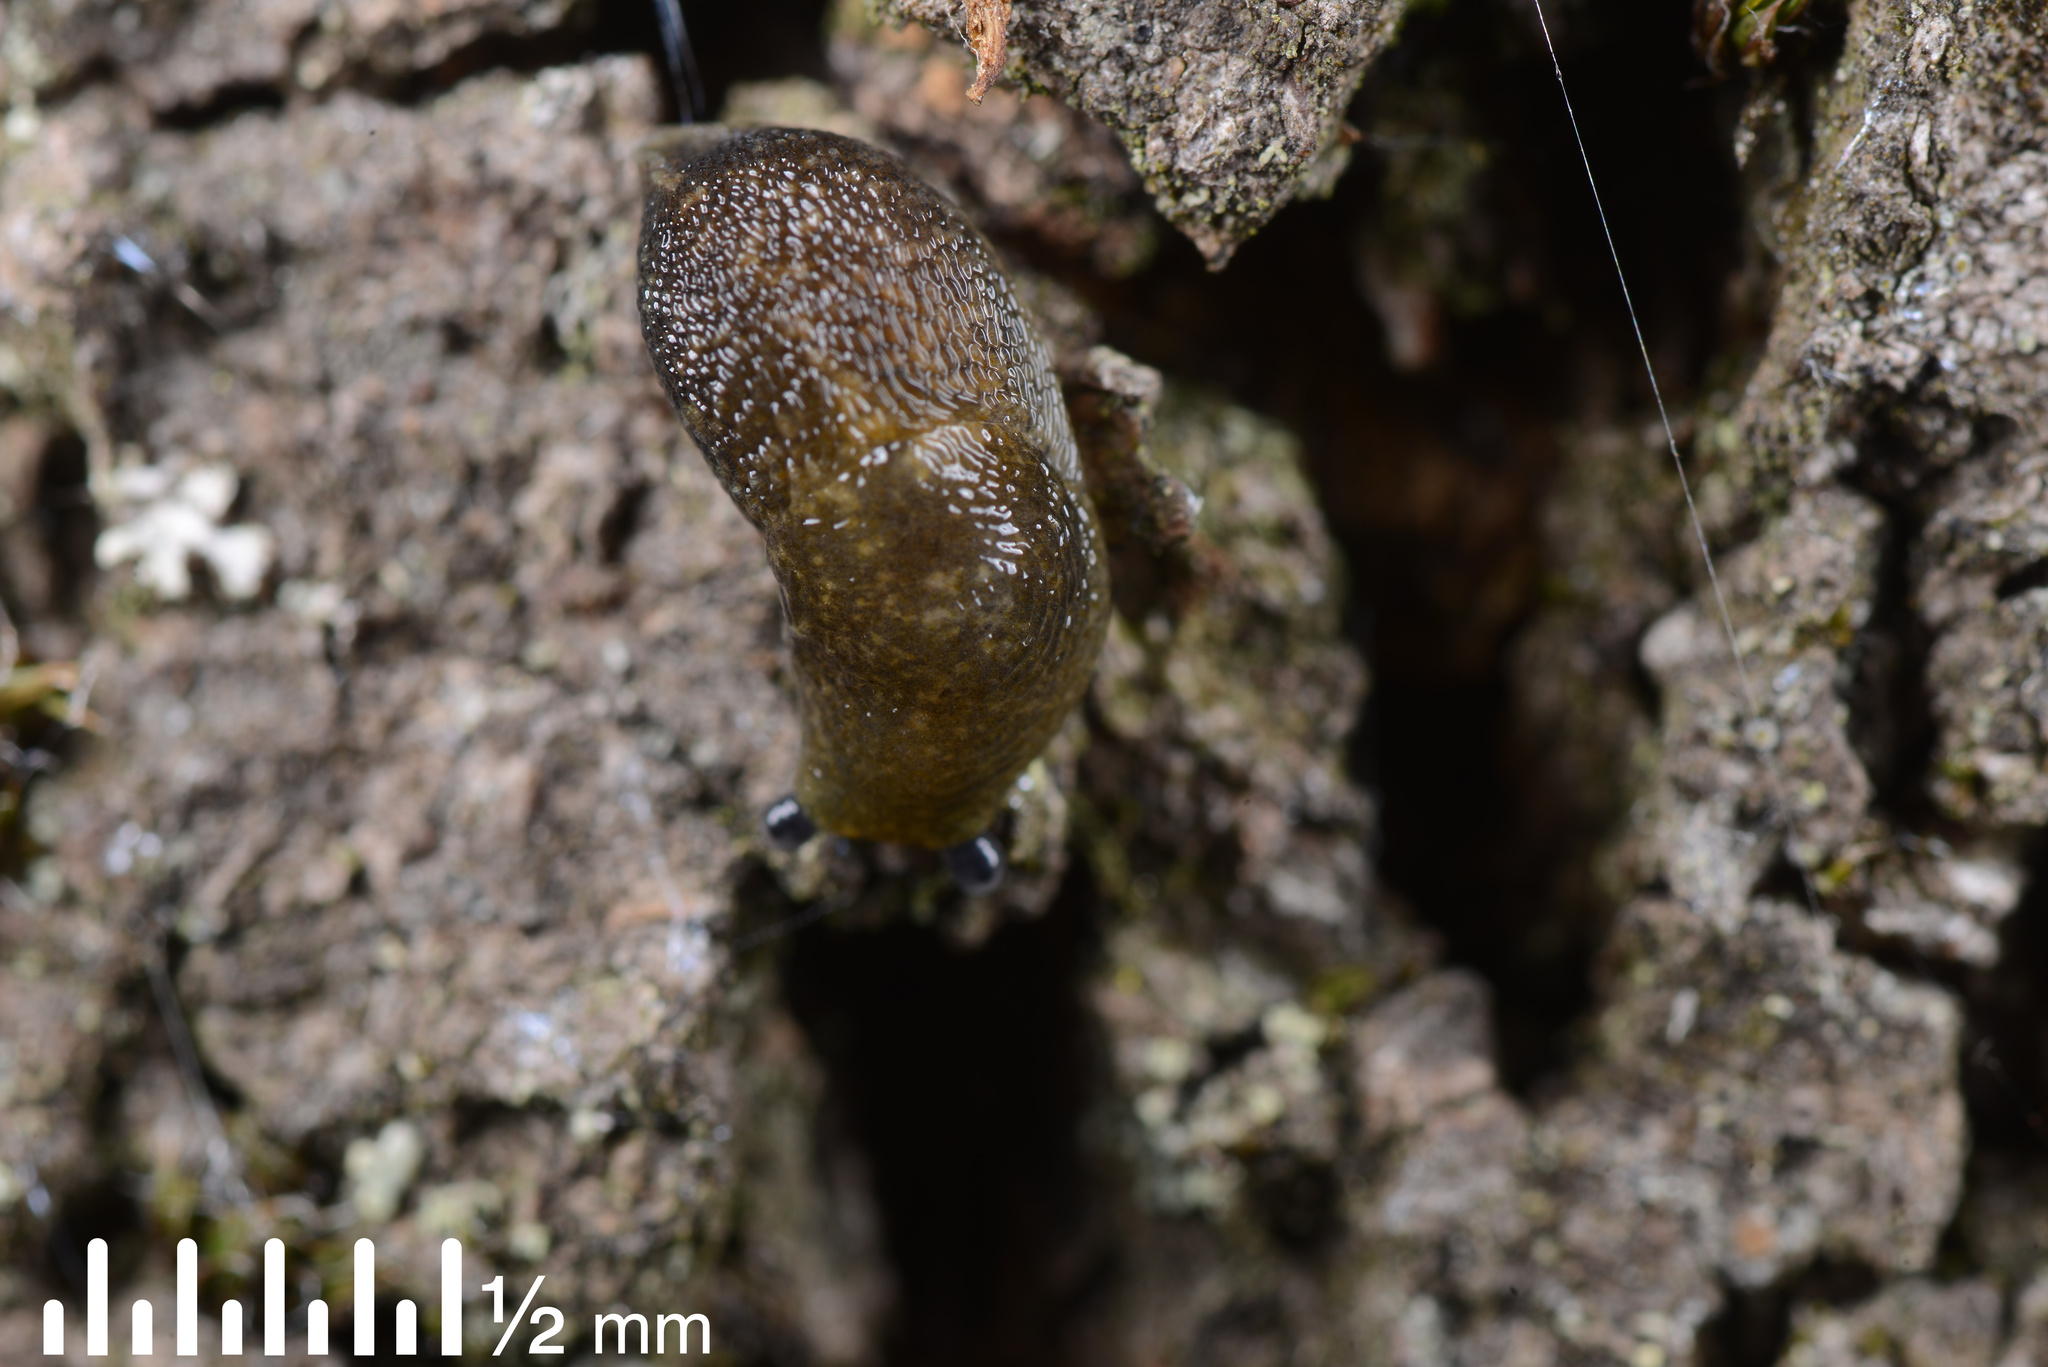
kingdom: Animalia
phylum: Mollusca
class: Gastropoda
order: Stylommatophora
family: Limacidae
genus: Limacus
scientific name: Limacus flavus
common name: Yellow gardenslug
